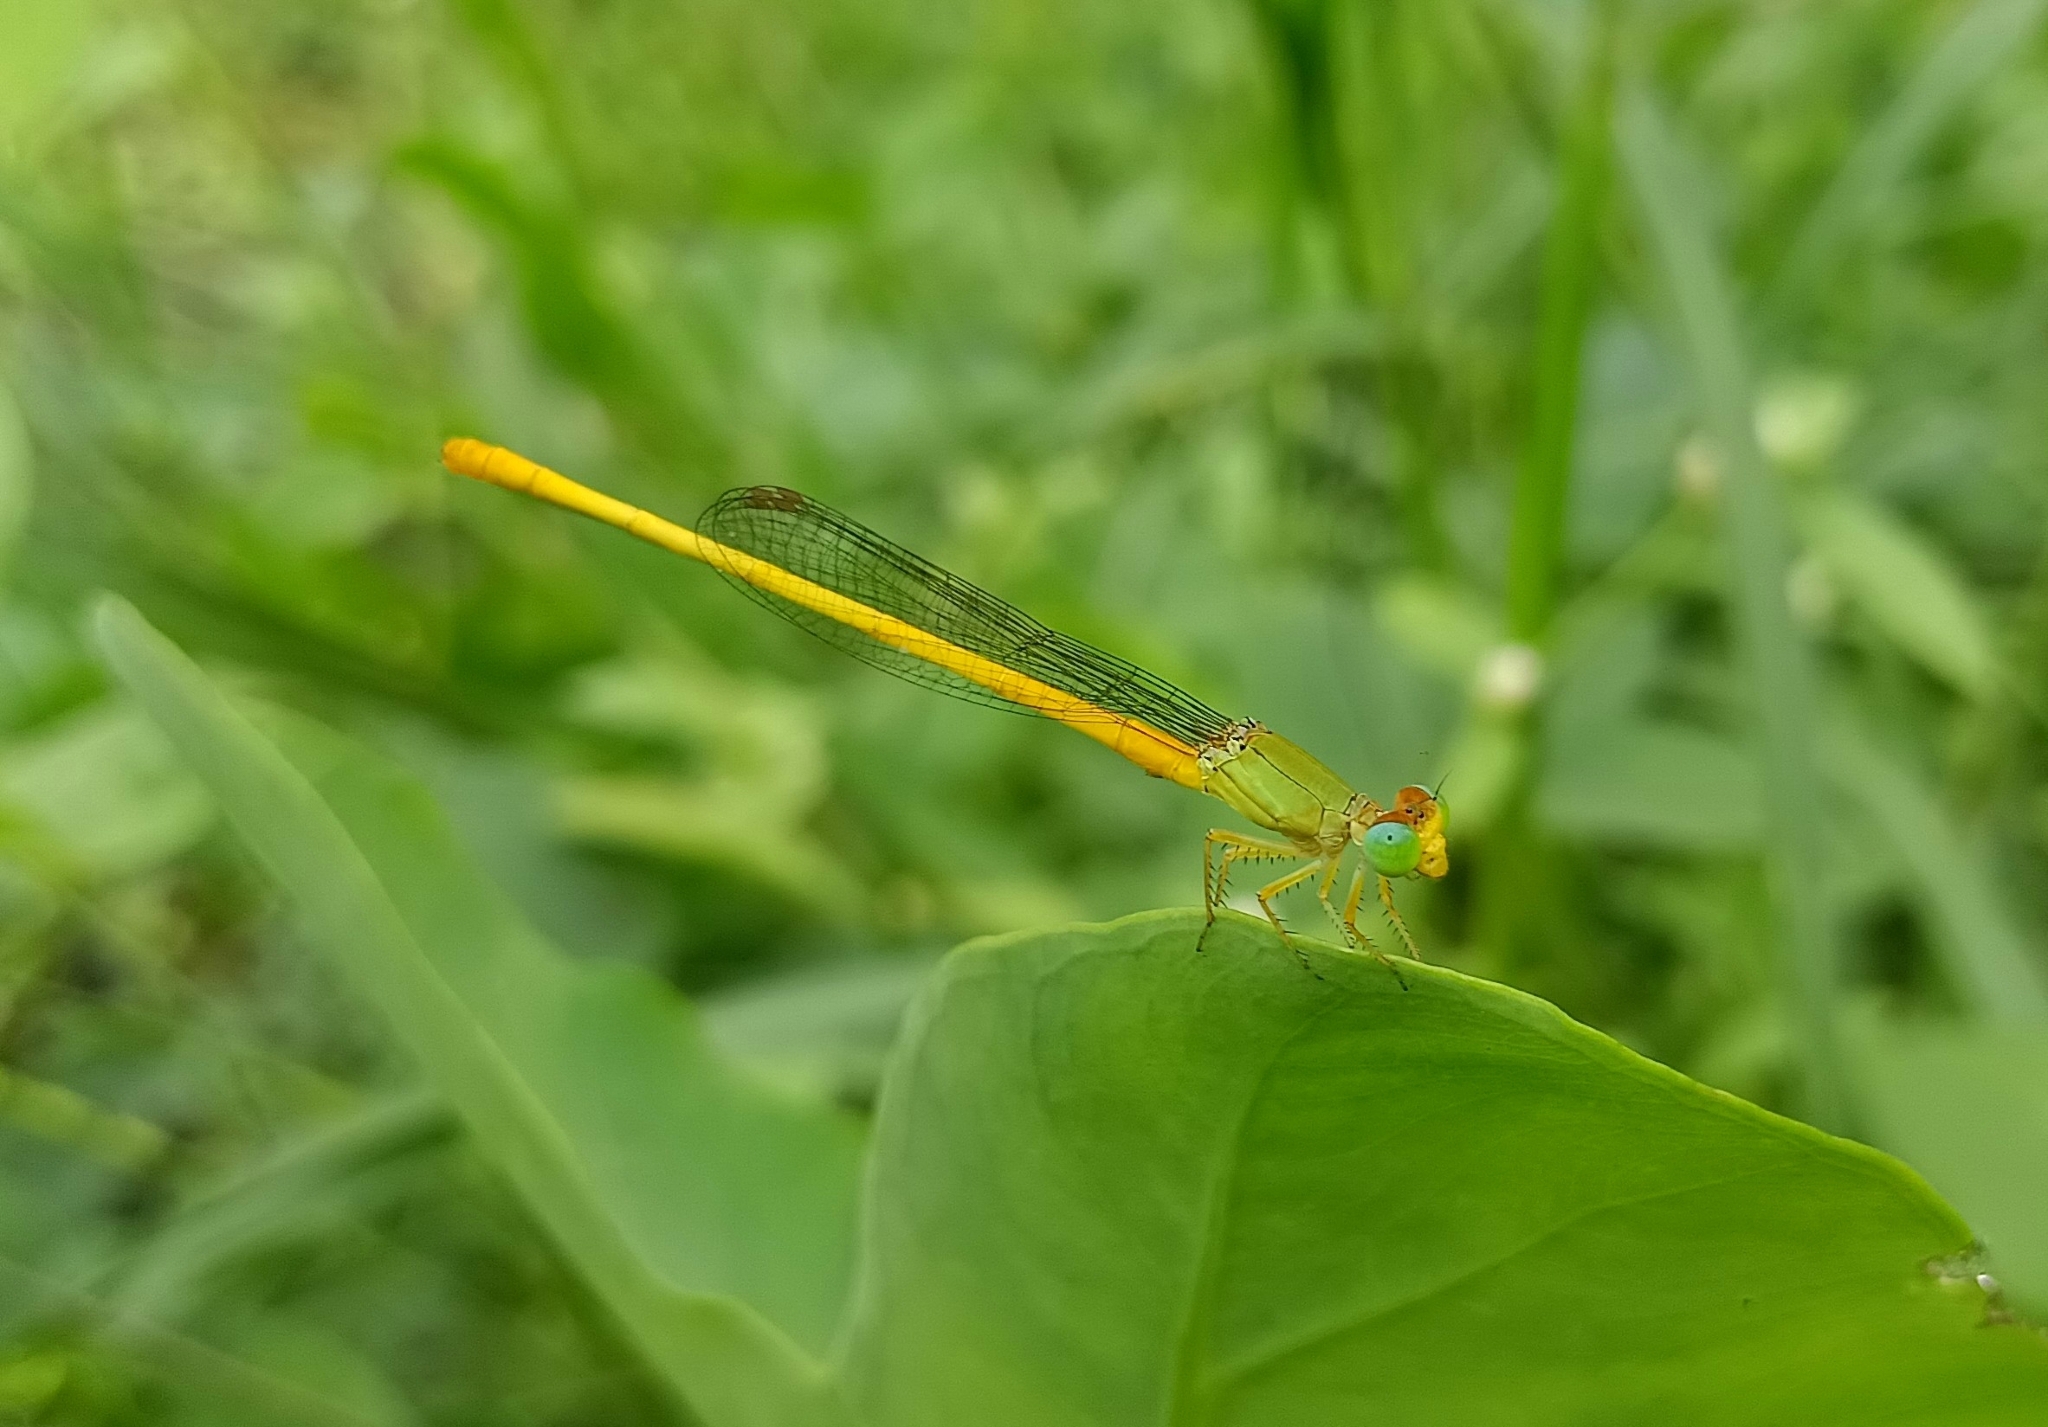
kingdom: Animalia
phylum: Arthropoda
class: Insecta
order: Odonata
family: Coenagrionidae
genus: Ceriagrion
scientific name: Ceriagrion coromandelianum
